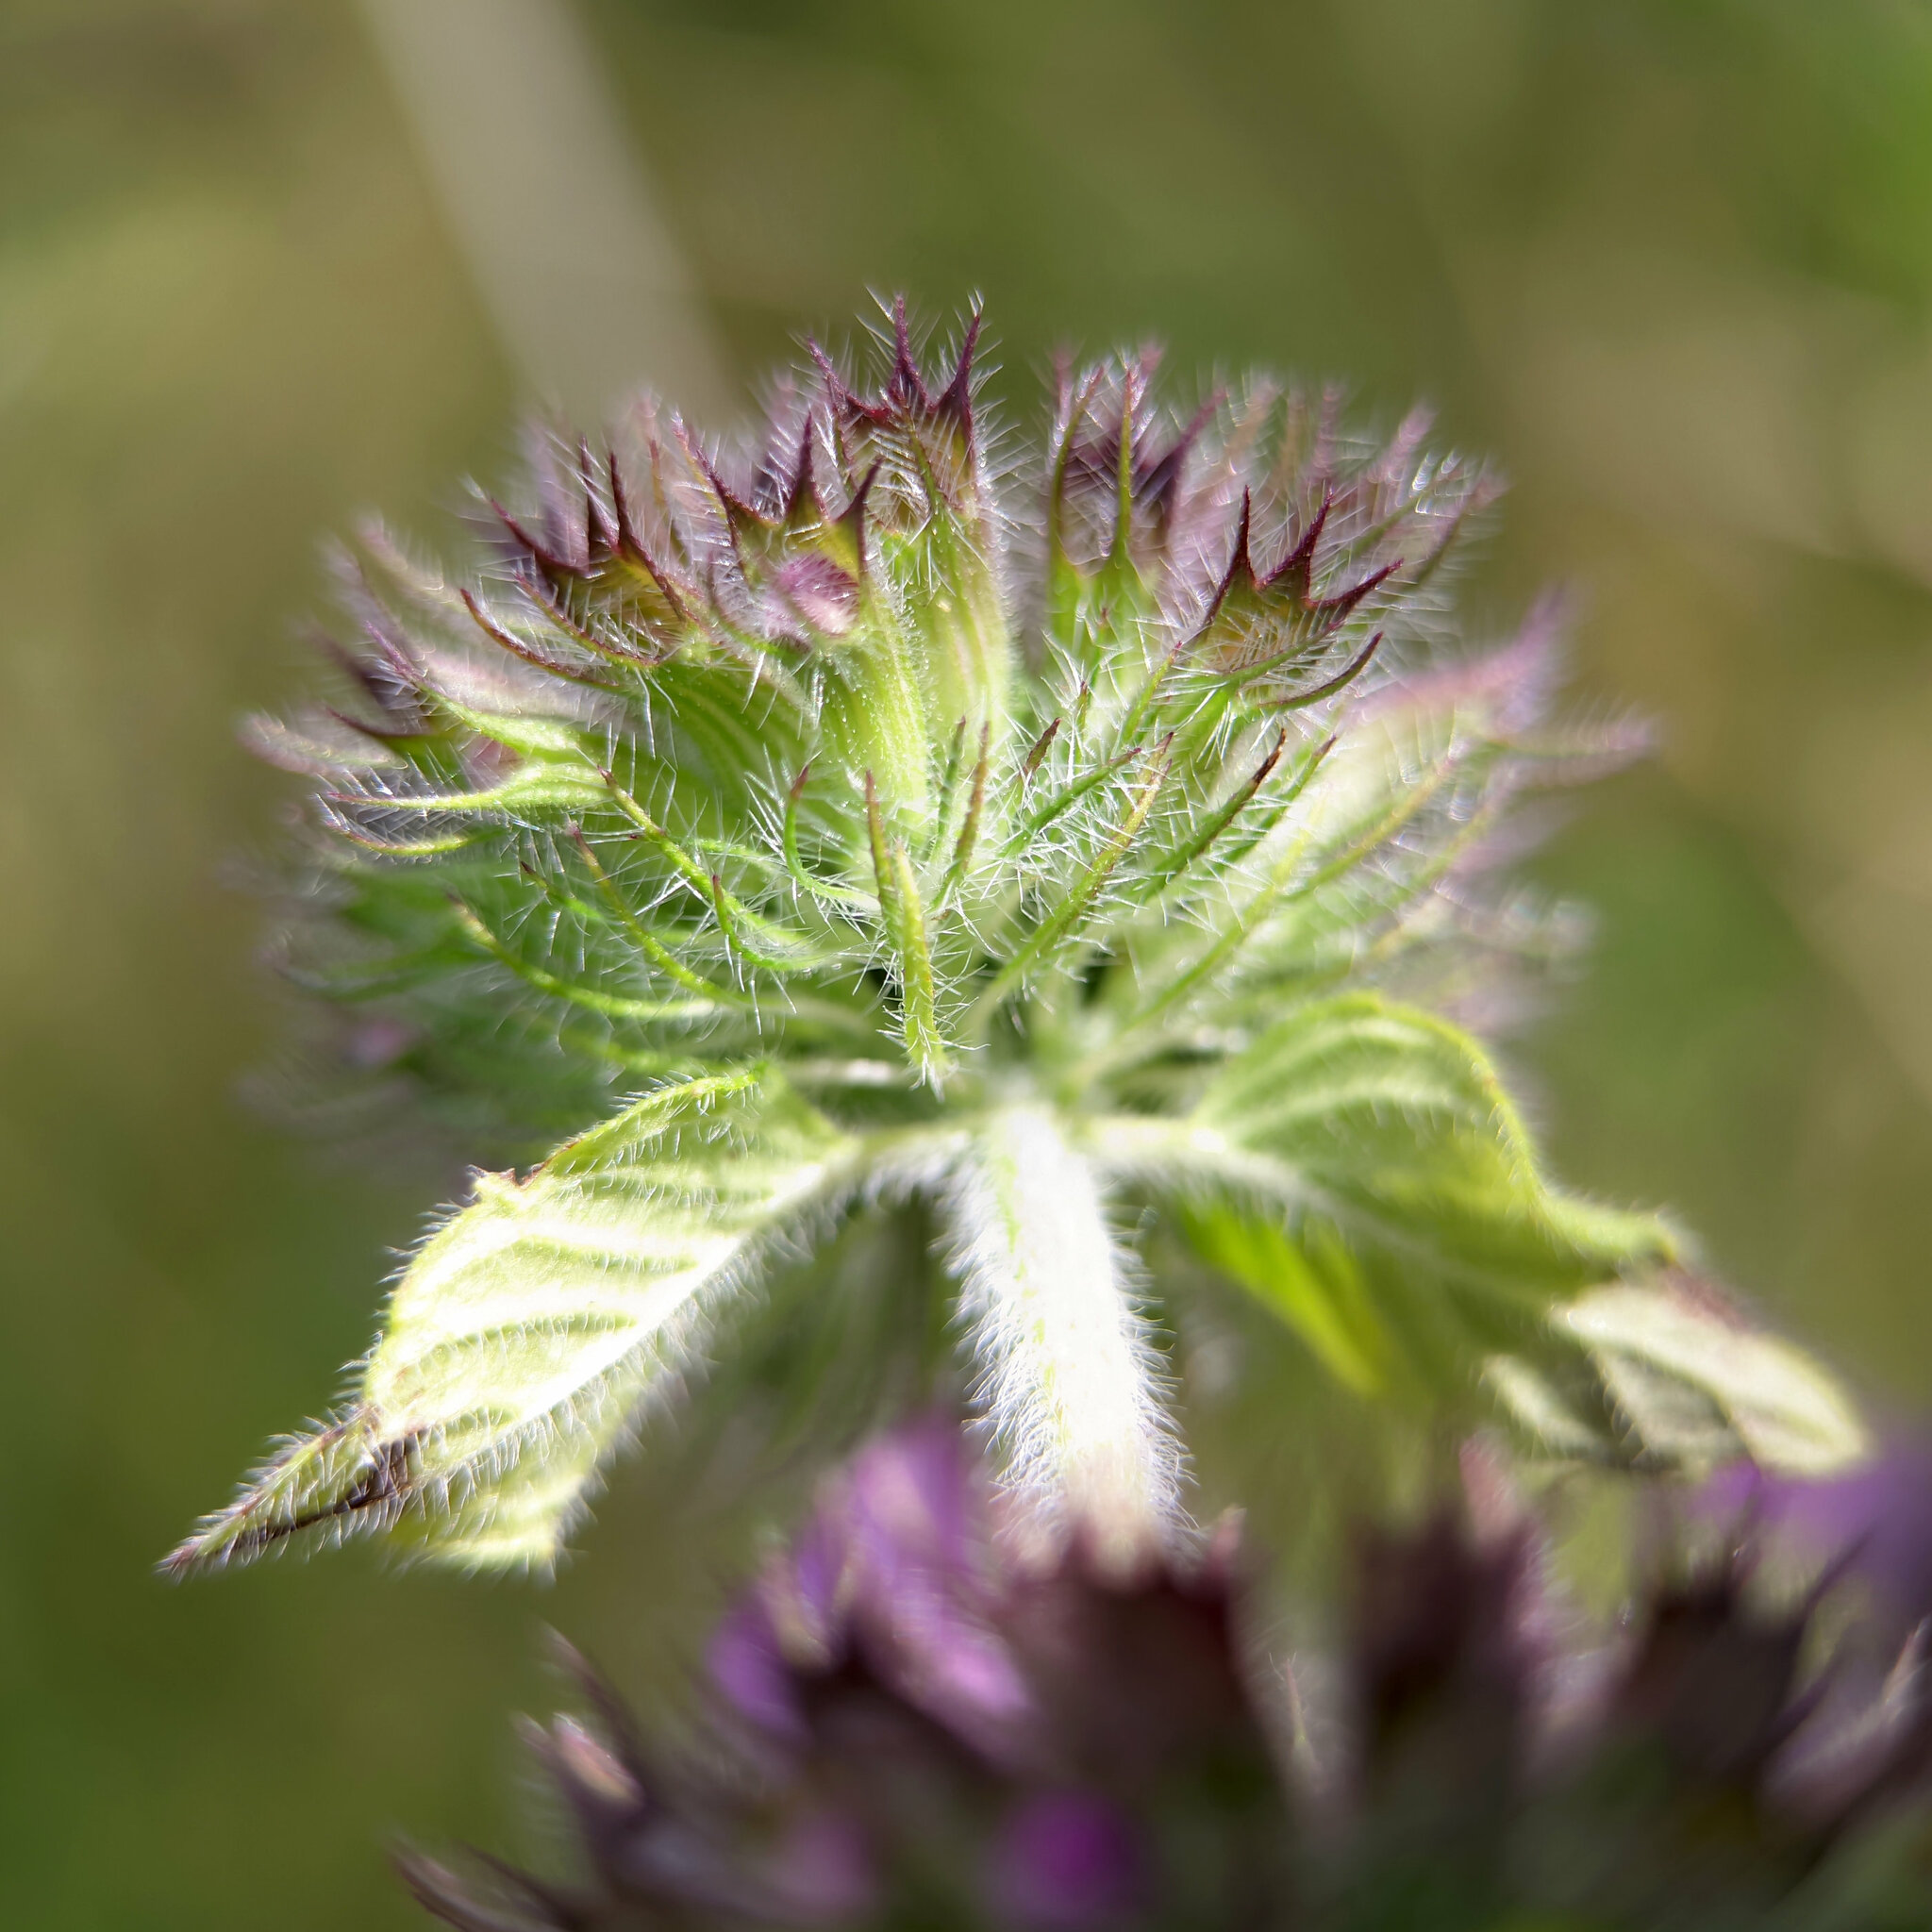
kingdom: Plantae
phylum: Tracheophyta
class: Magnoliopsida
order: Lamiales
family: Lamiaceae
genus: Clinopodium
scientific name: Clinopodium vulgare
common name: Wild basil
